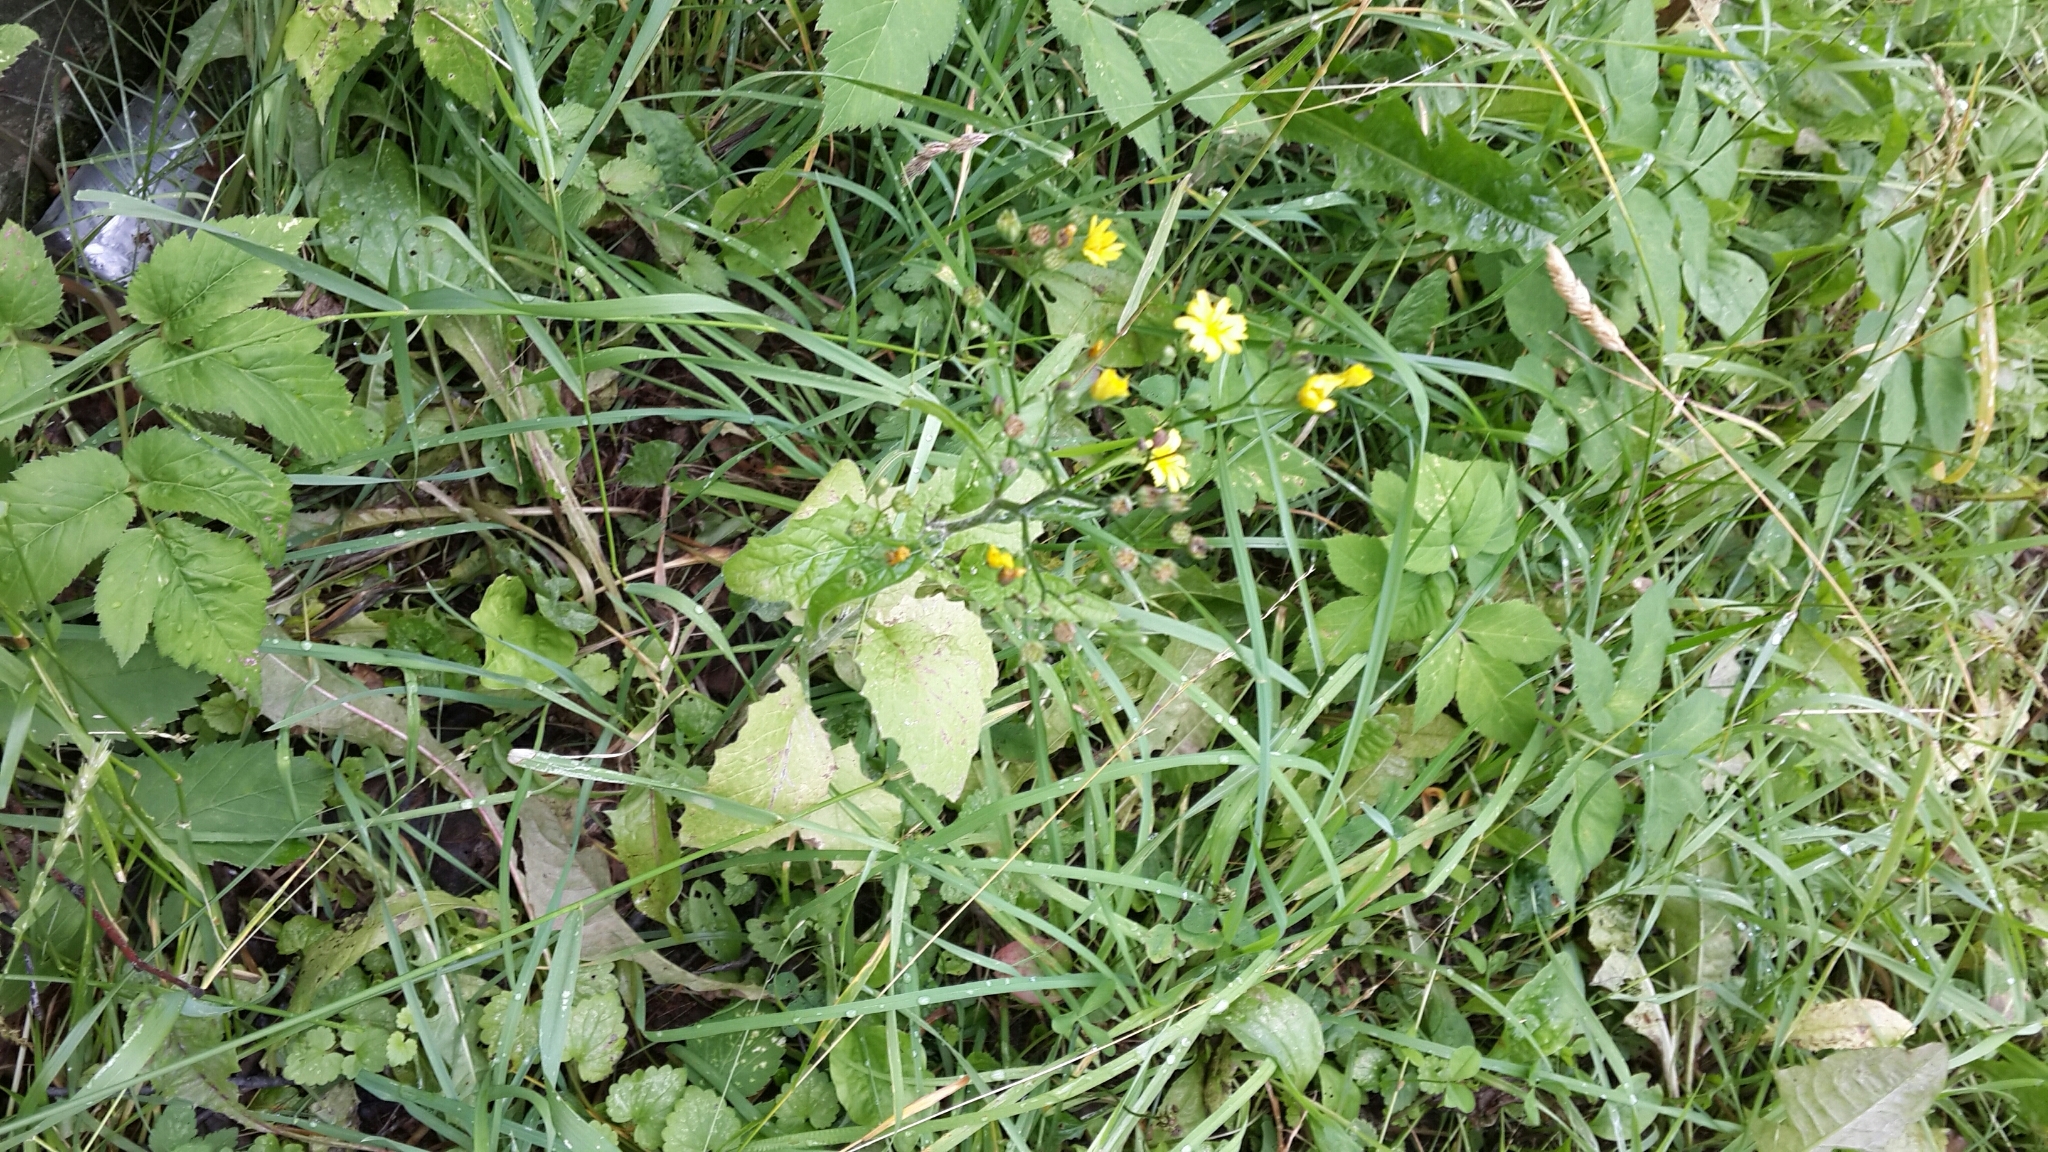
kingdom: Plantae
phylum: Tracheophyta
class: Magnoliopsida
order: Asterales
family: Asteraceae
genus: Lapsana
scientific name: Lapsana communis
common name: Nipplewort
